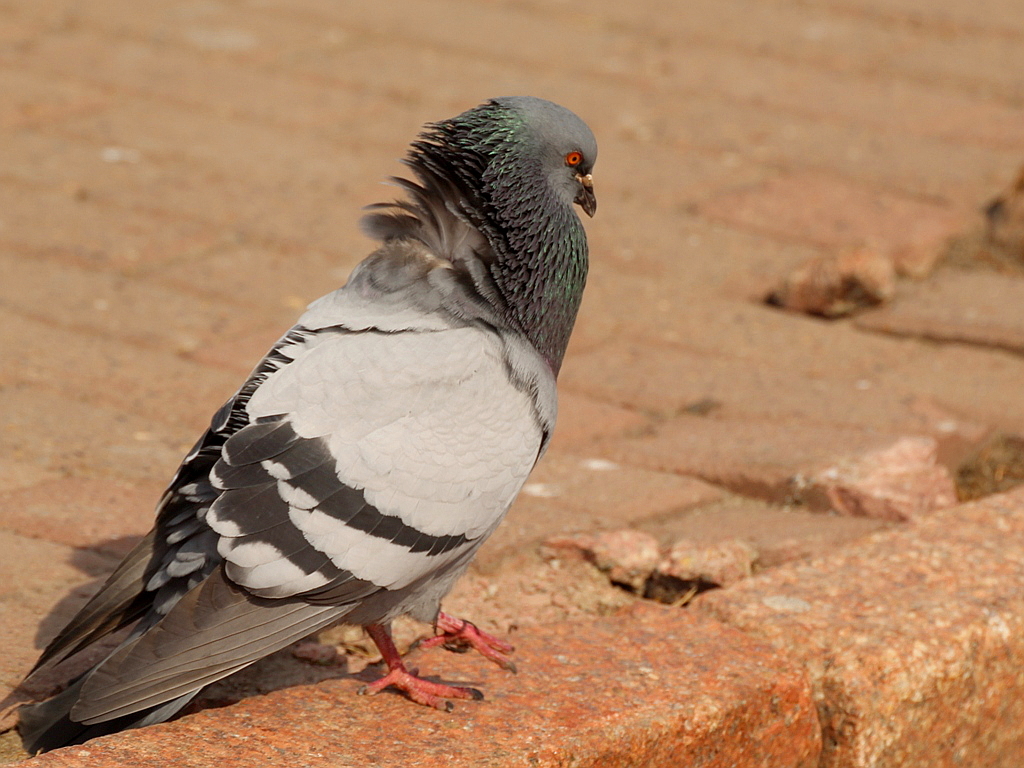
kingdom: Animalia
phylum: Chordata
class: Aves
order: Columbiformes
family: Columbidae
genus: Columba
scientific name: Columba livia
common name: Rock pigeon
